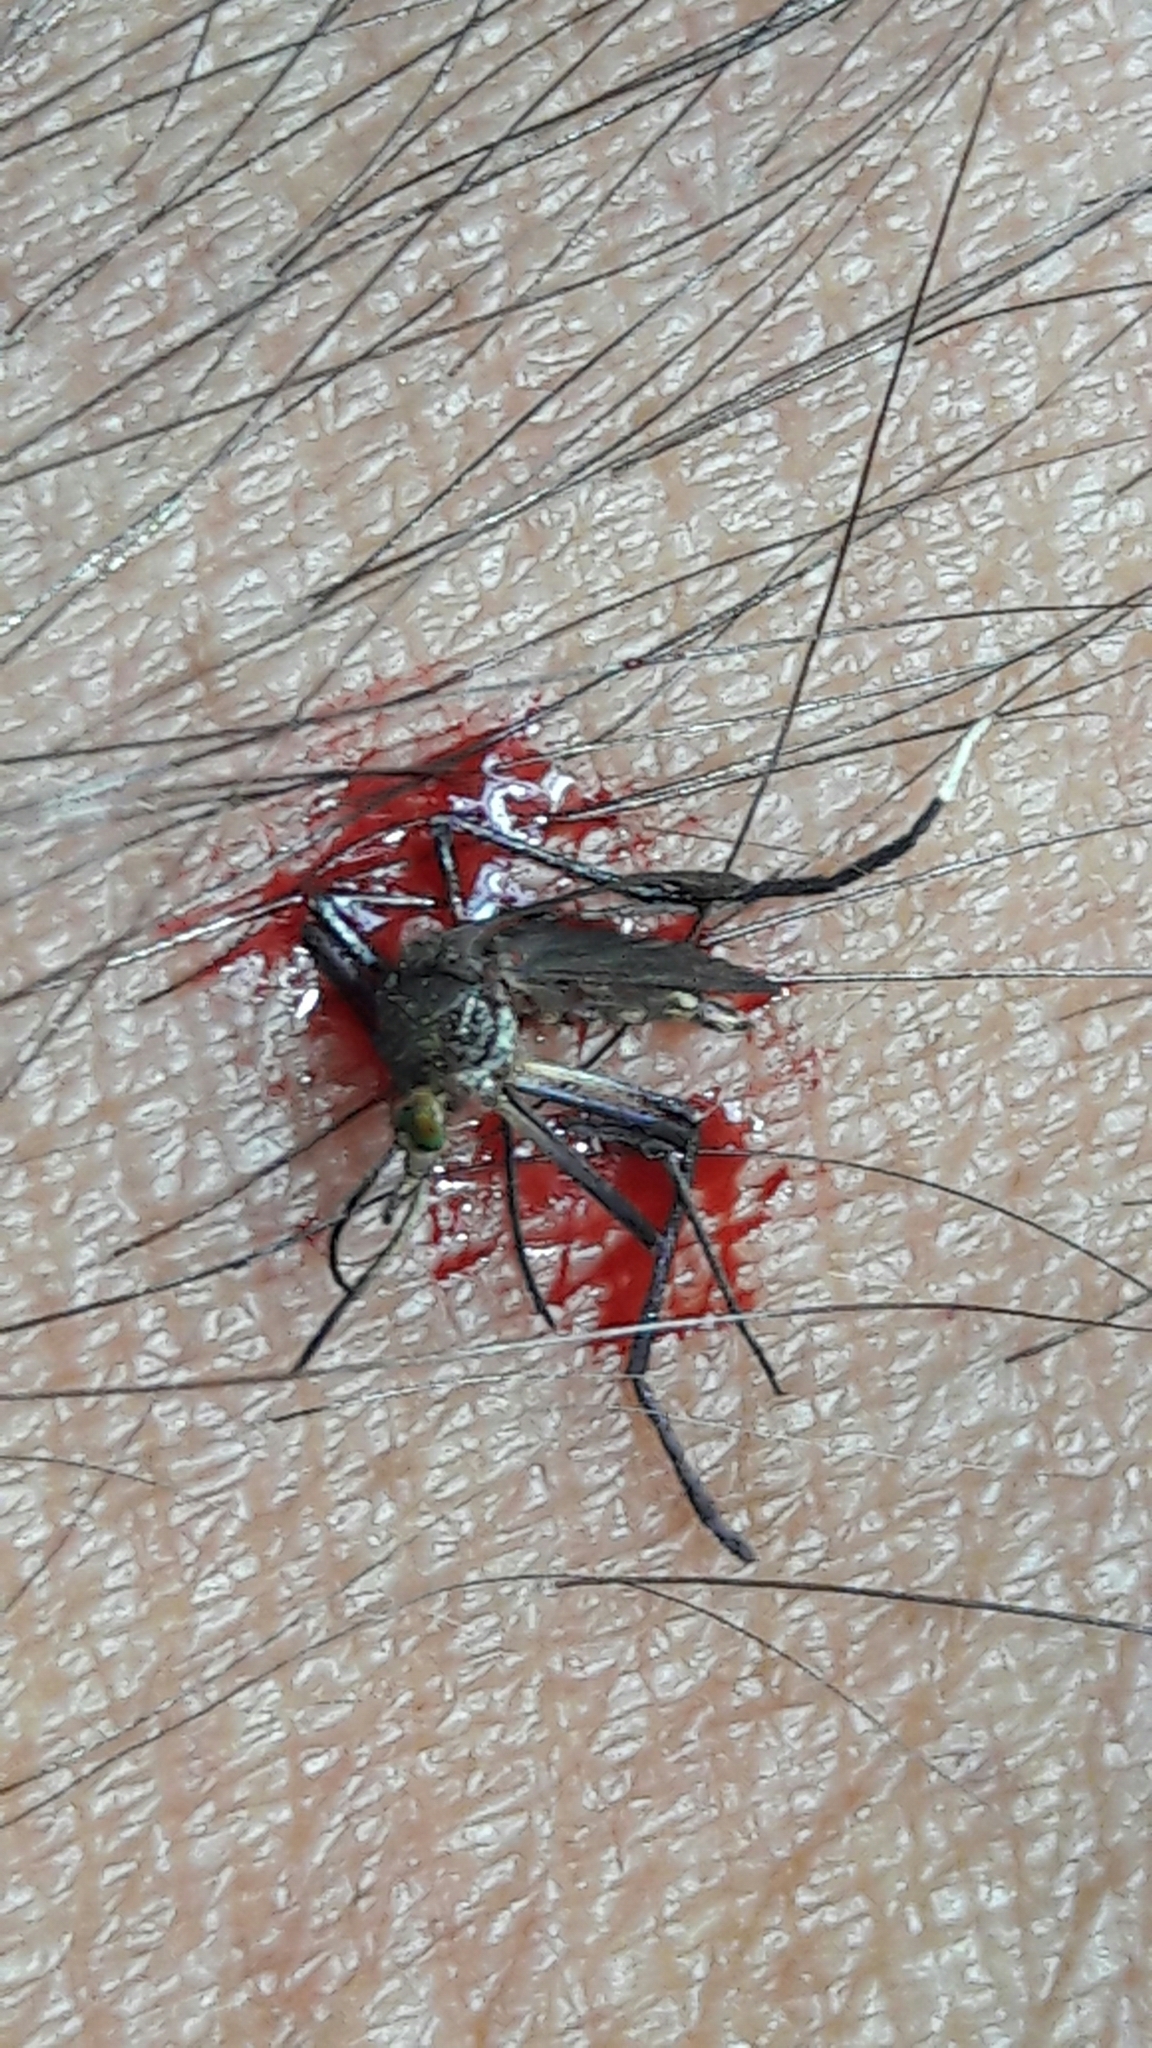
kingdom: Animalia
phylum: Arthropoda
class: Insecta
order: Diptera
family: Culicidae
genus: Psorophora
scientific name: Psorophora ferox
